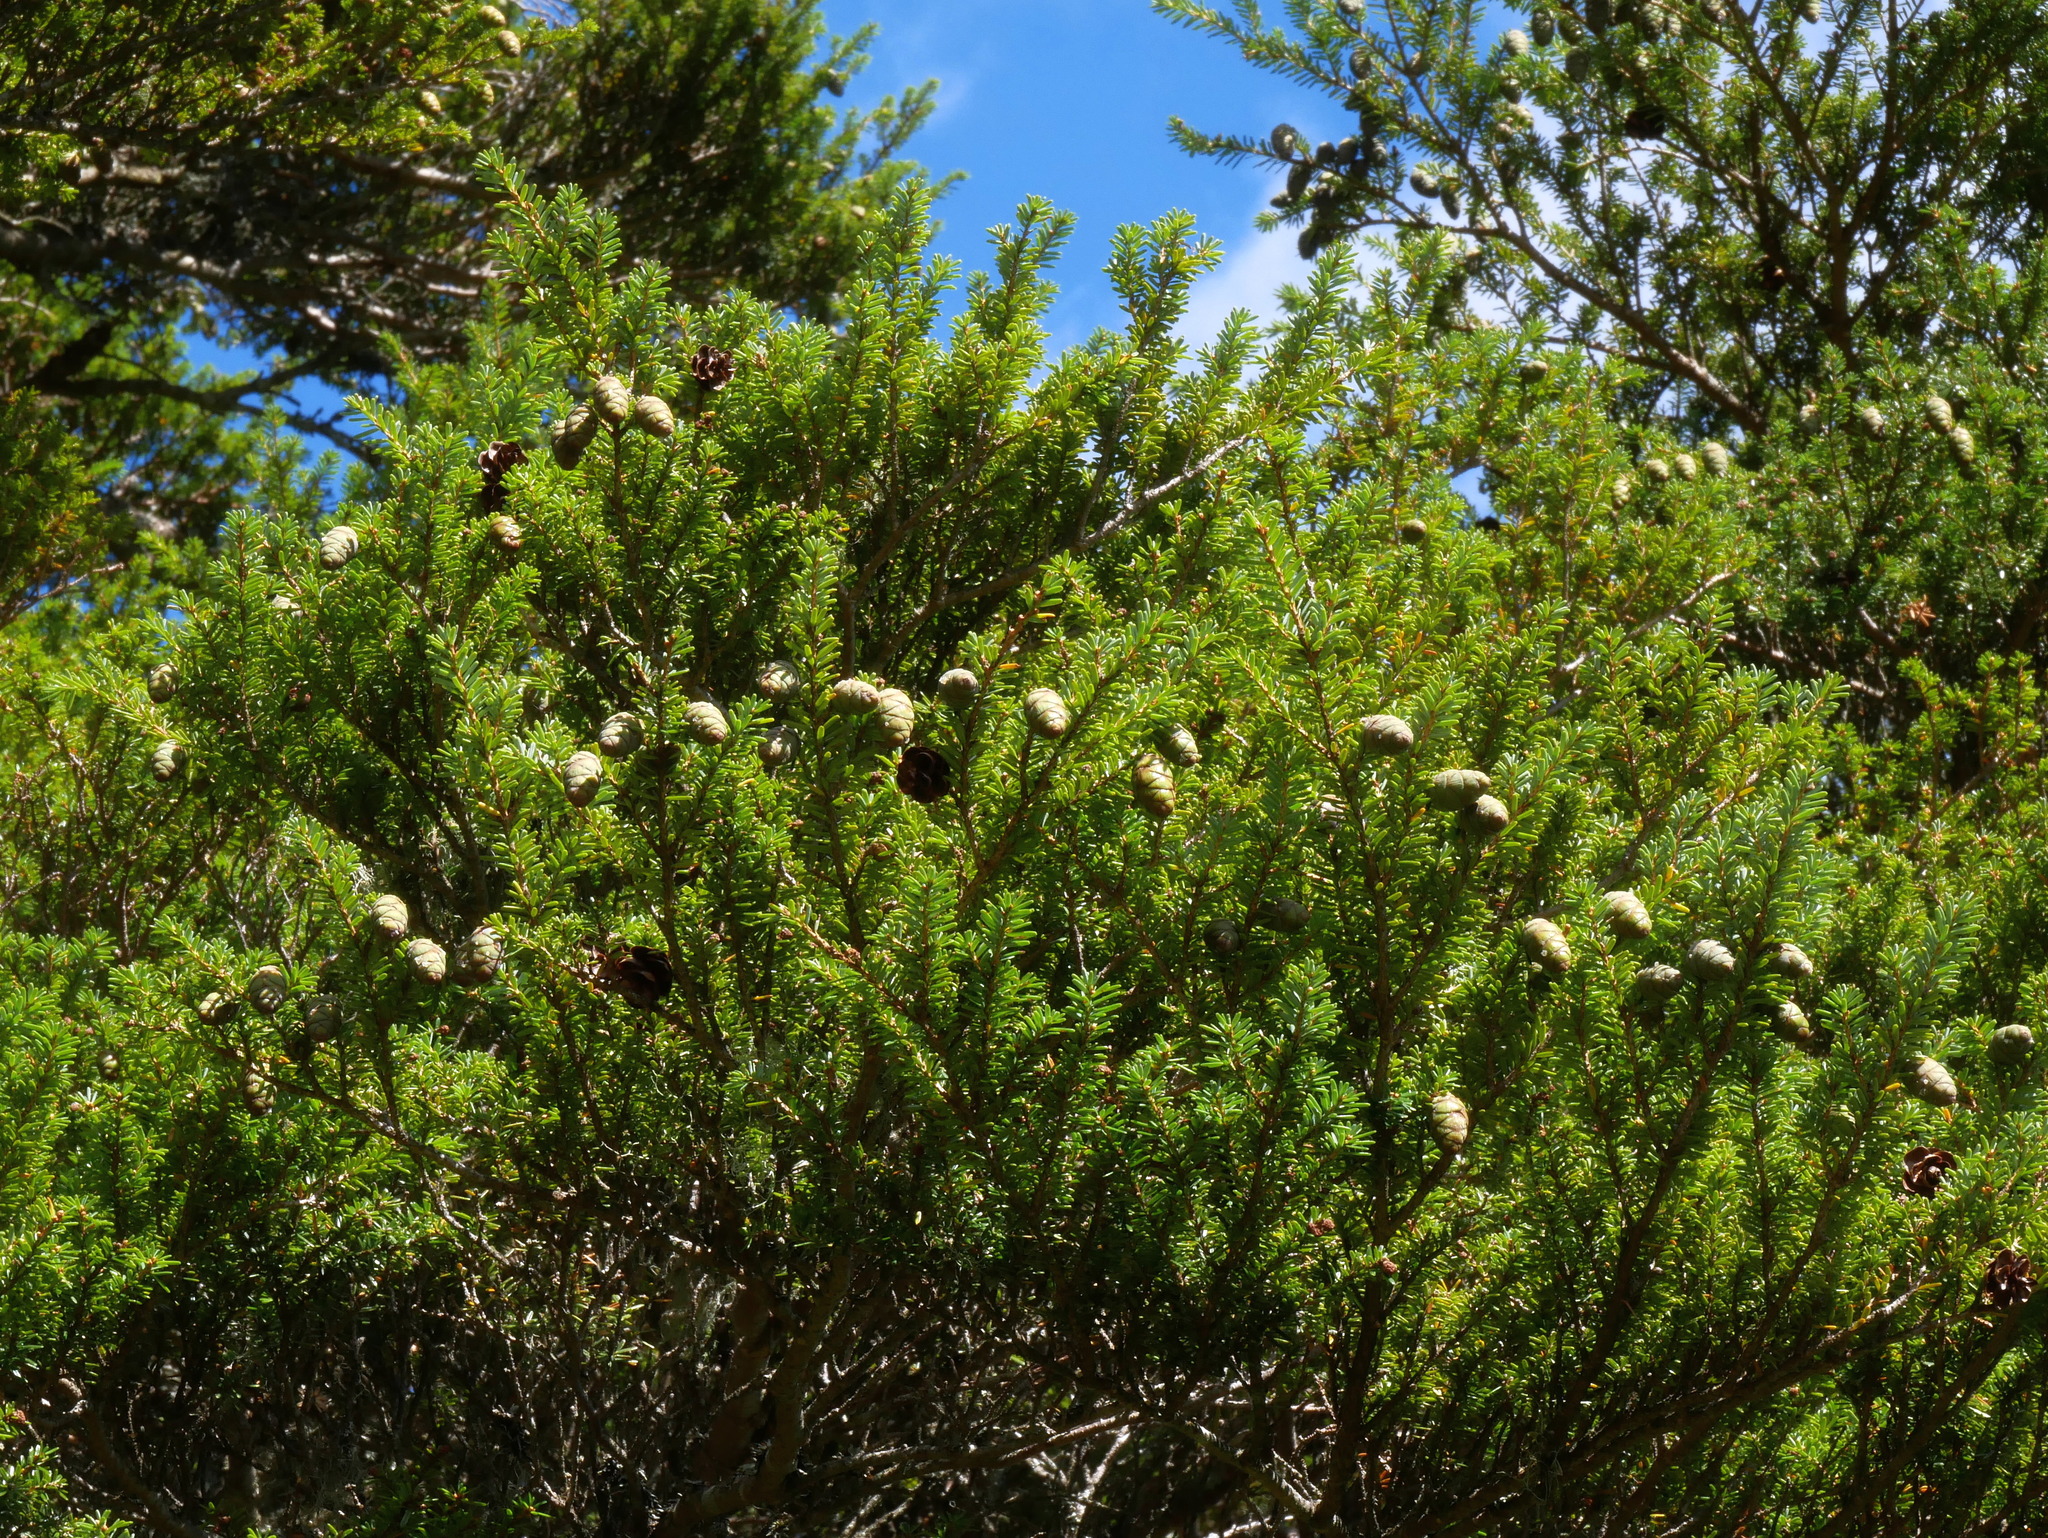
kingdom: Plantae
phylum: Tracheophyta
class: Pinopsida
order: Pinales
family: Pinaceae
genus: Tsuga
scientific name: Tsuga chinensis
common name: Chinese hemlock
